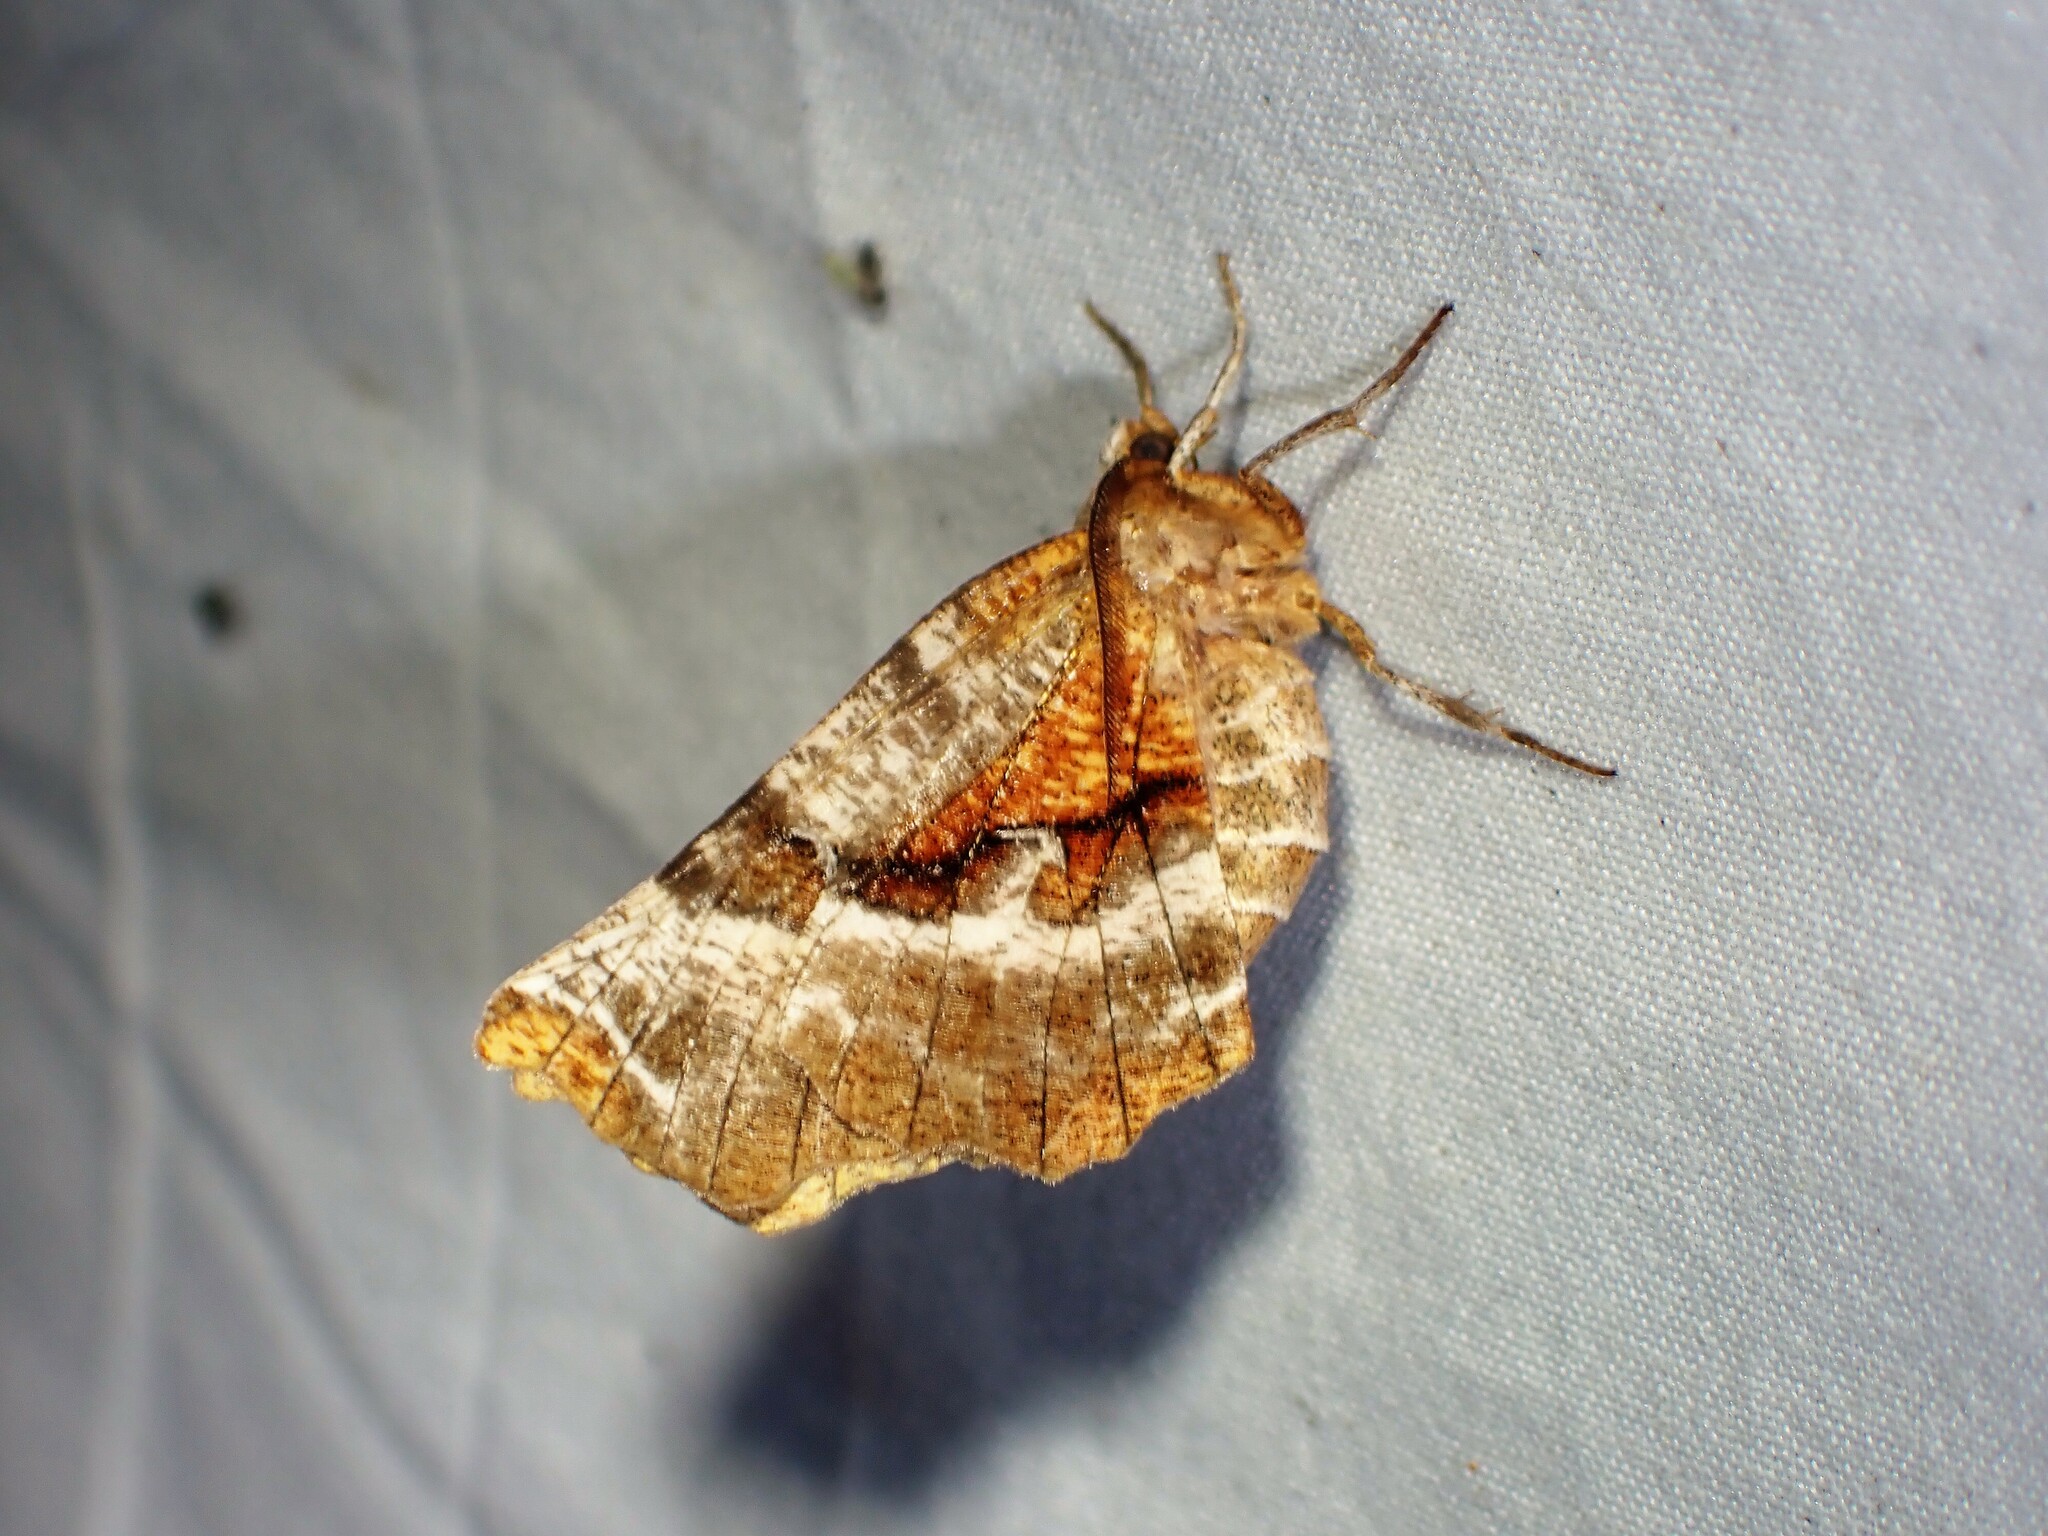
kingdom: Animalia
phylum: Arthropoda
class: Insecta
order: Lepidoptera
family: Geometridae
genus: Selenia
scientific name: Selenia kentaria
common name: Kent's geometer
